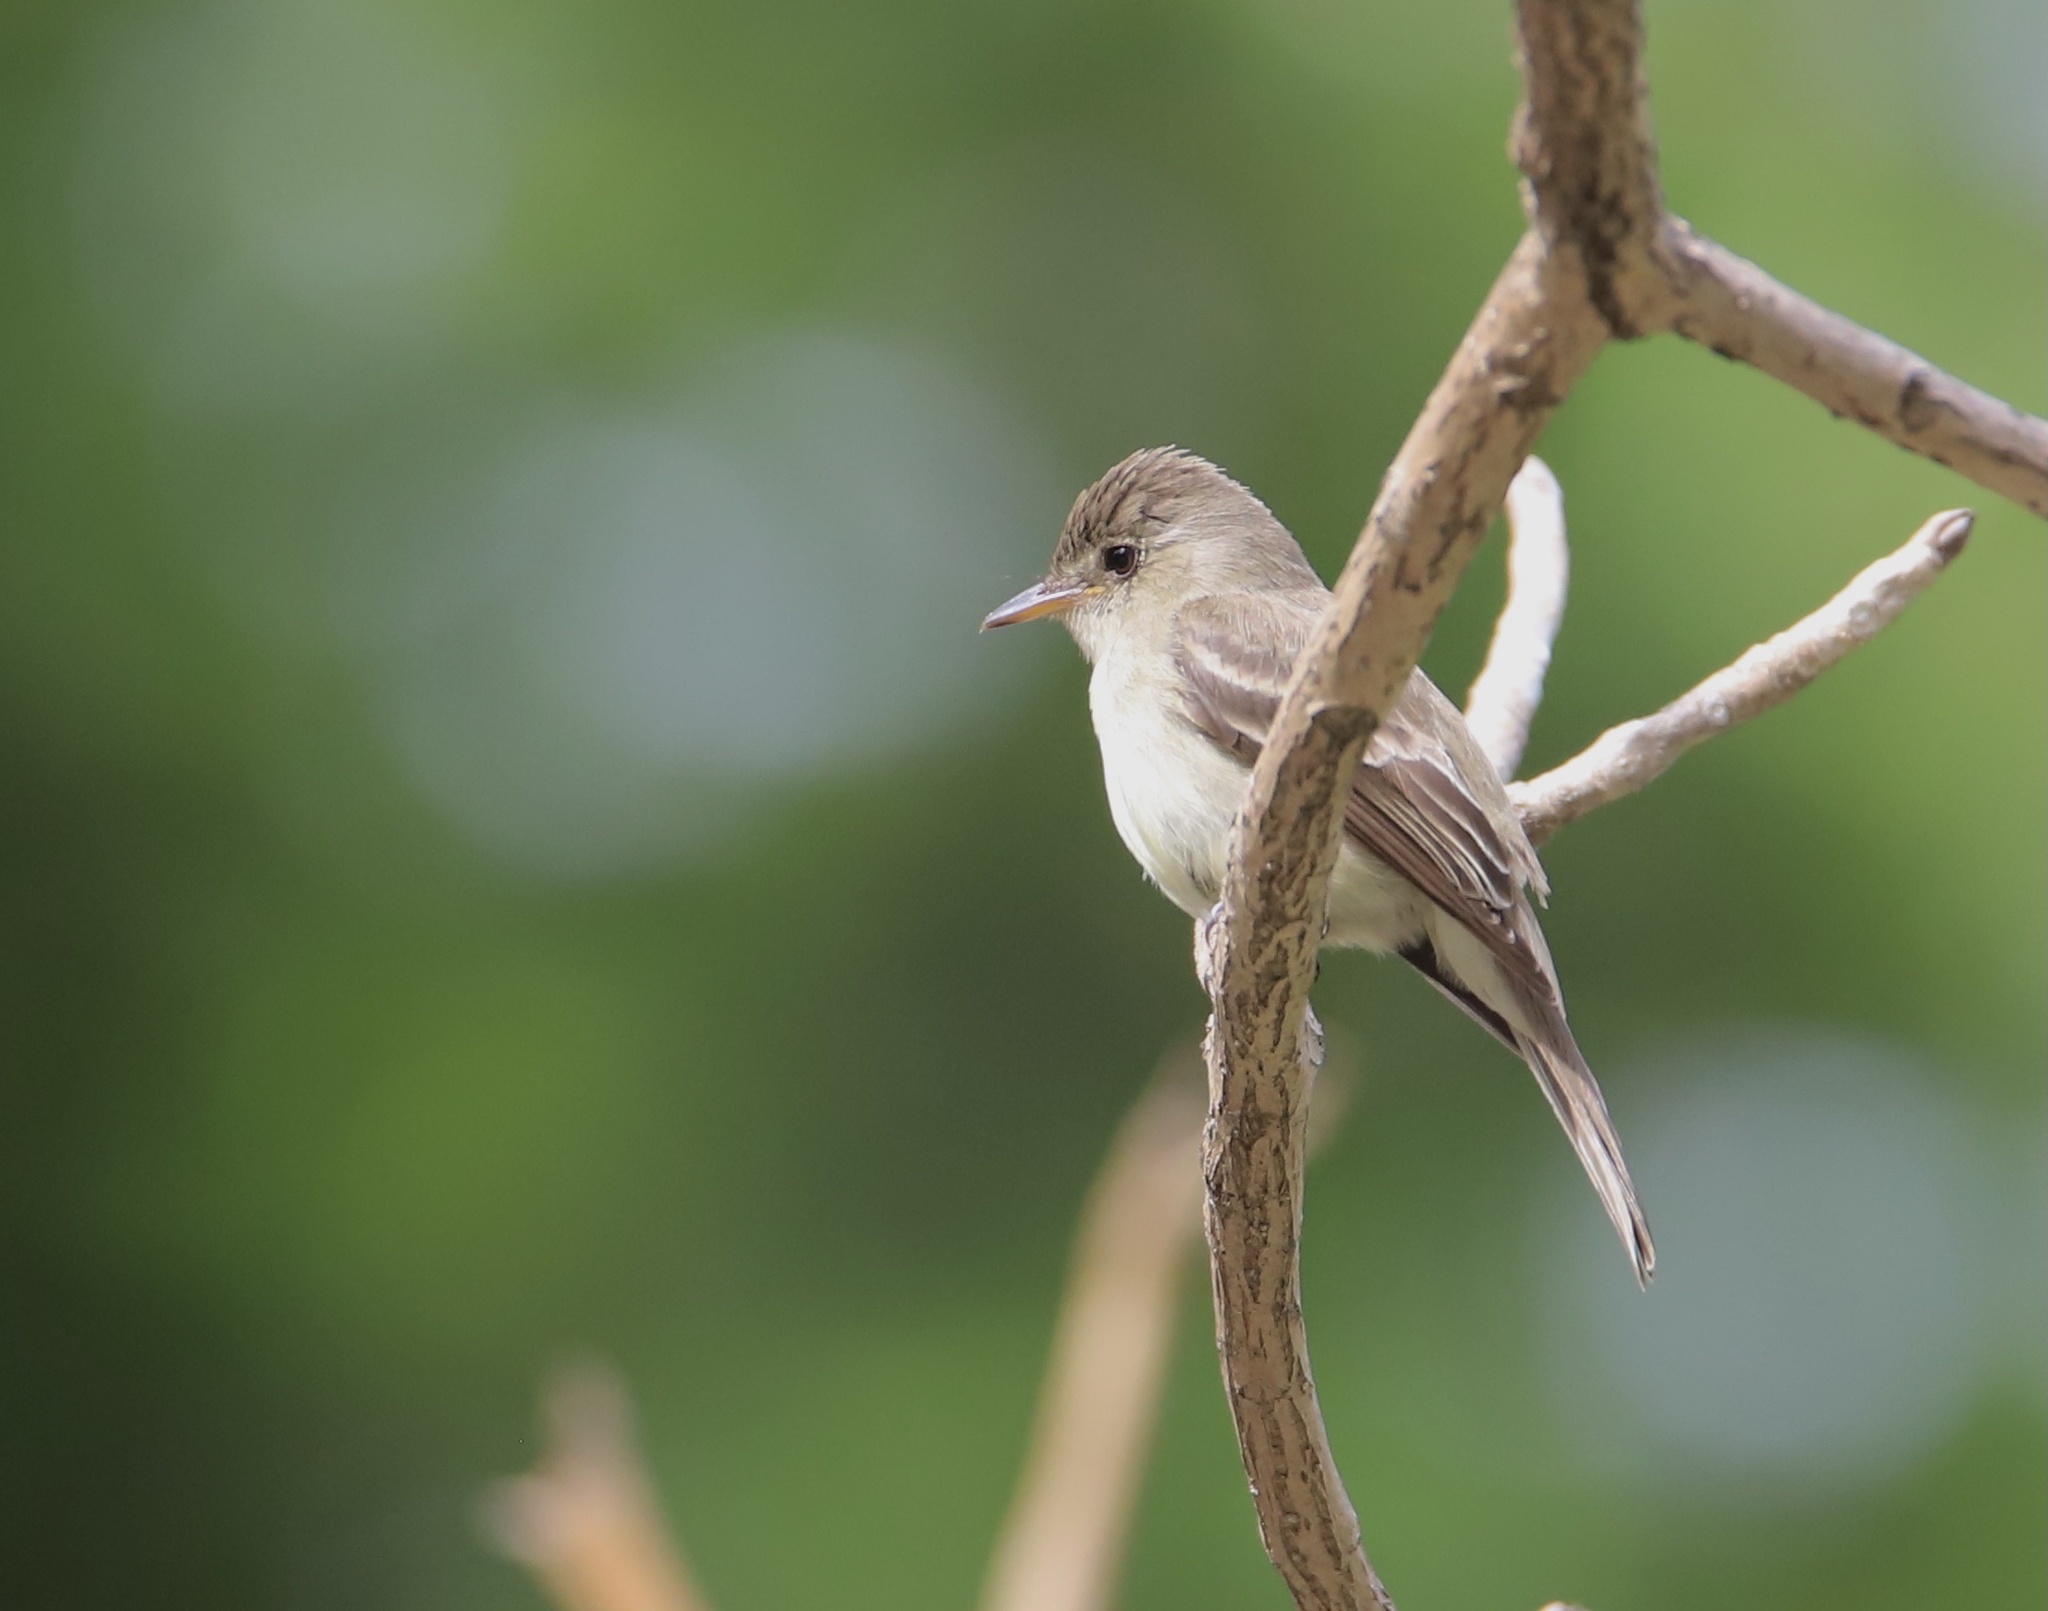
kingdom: Animalia
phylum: Chordata
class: Aves
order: Passeriformes
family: Tyrannidae
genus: Contopus
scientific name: Contopus cinereus
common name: Tropical pewee
